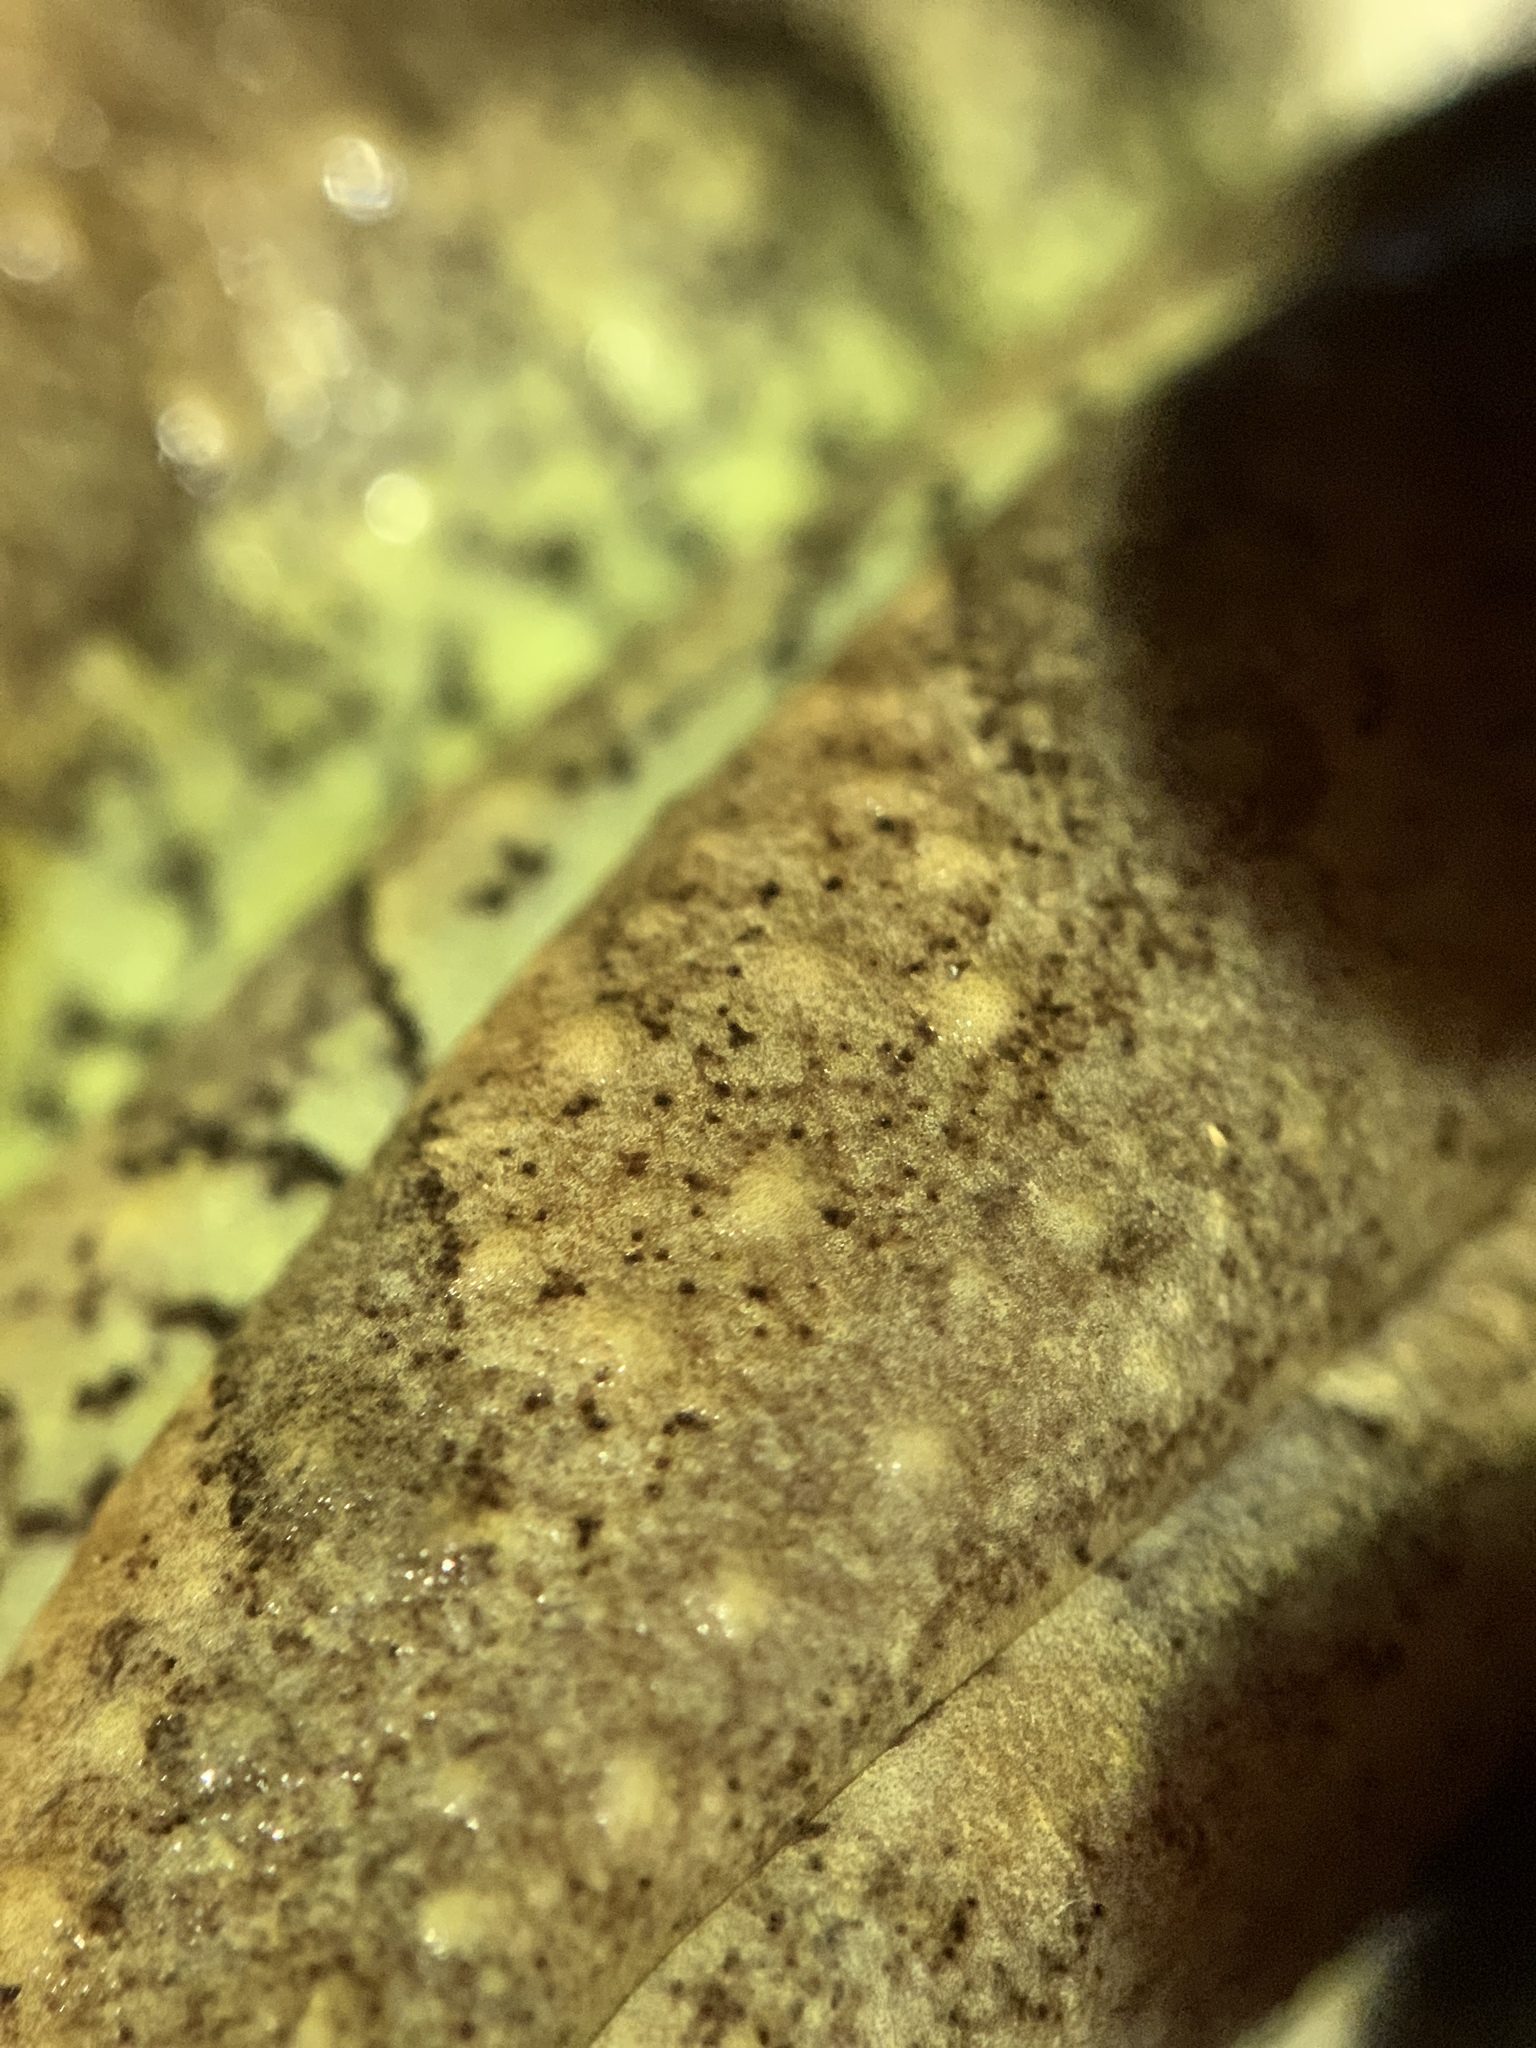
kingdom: Animalia
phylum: Chordata
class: Amphibia
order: Anura
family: Hylidae
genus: Osteopilus
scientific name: Osteopilus septentrionalis
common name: Cuban treefrog
